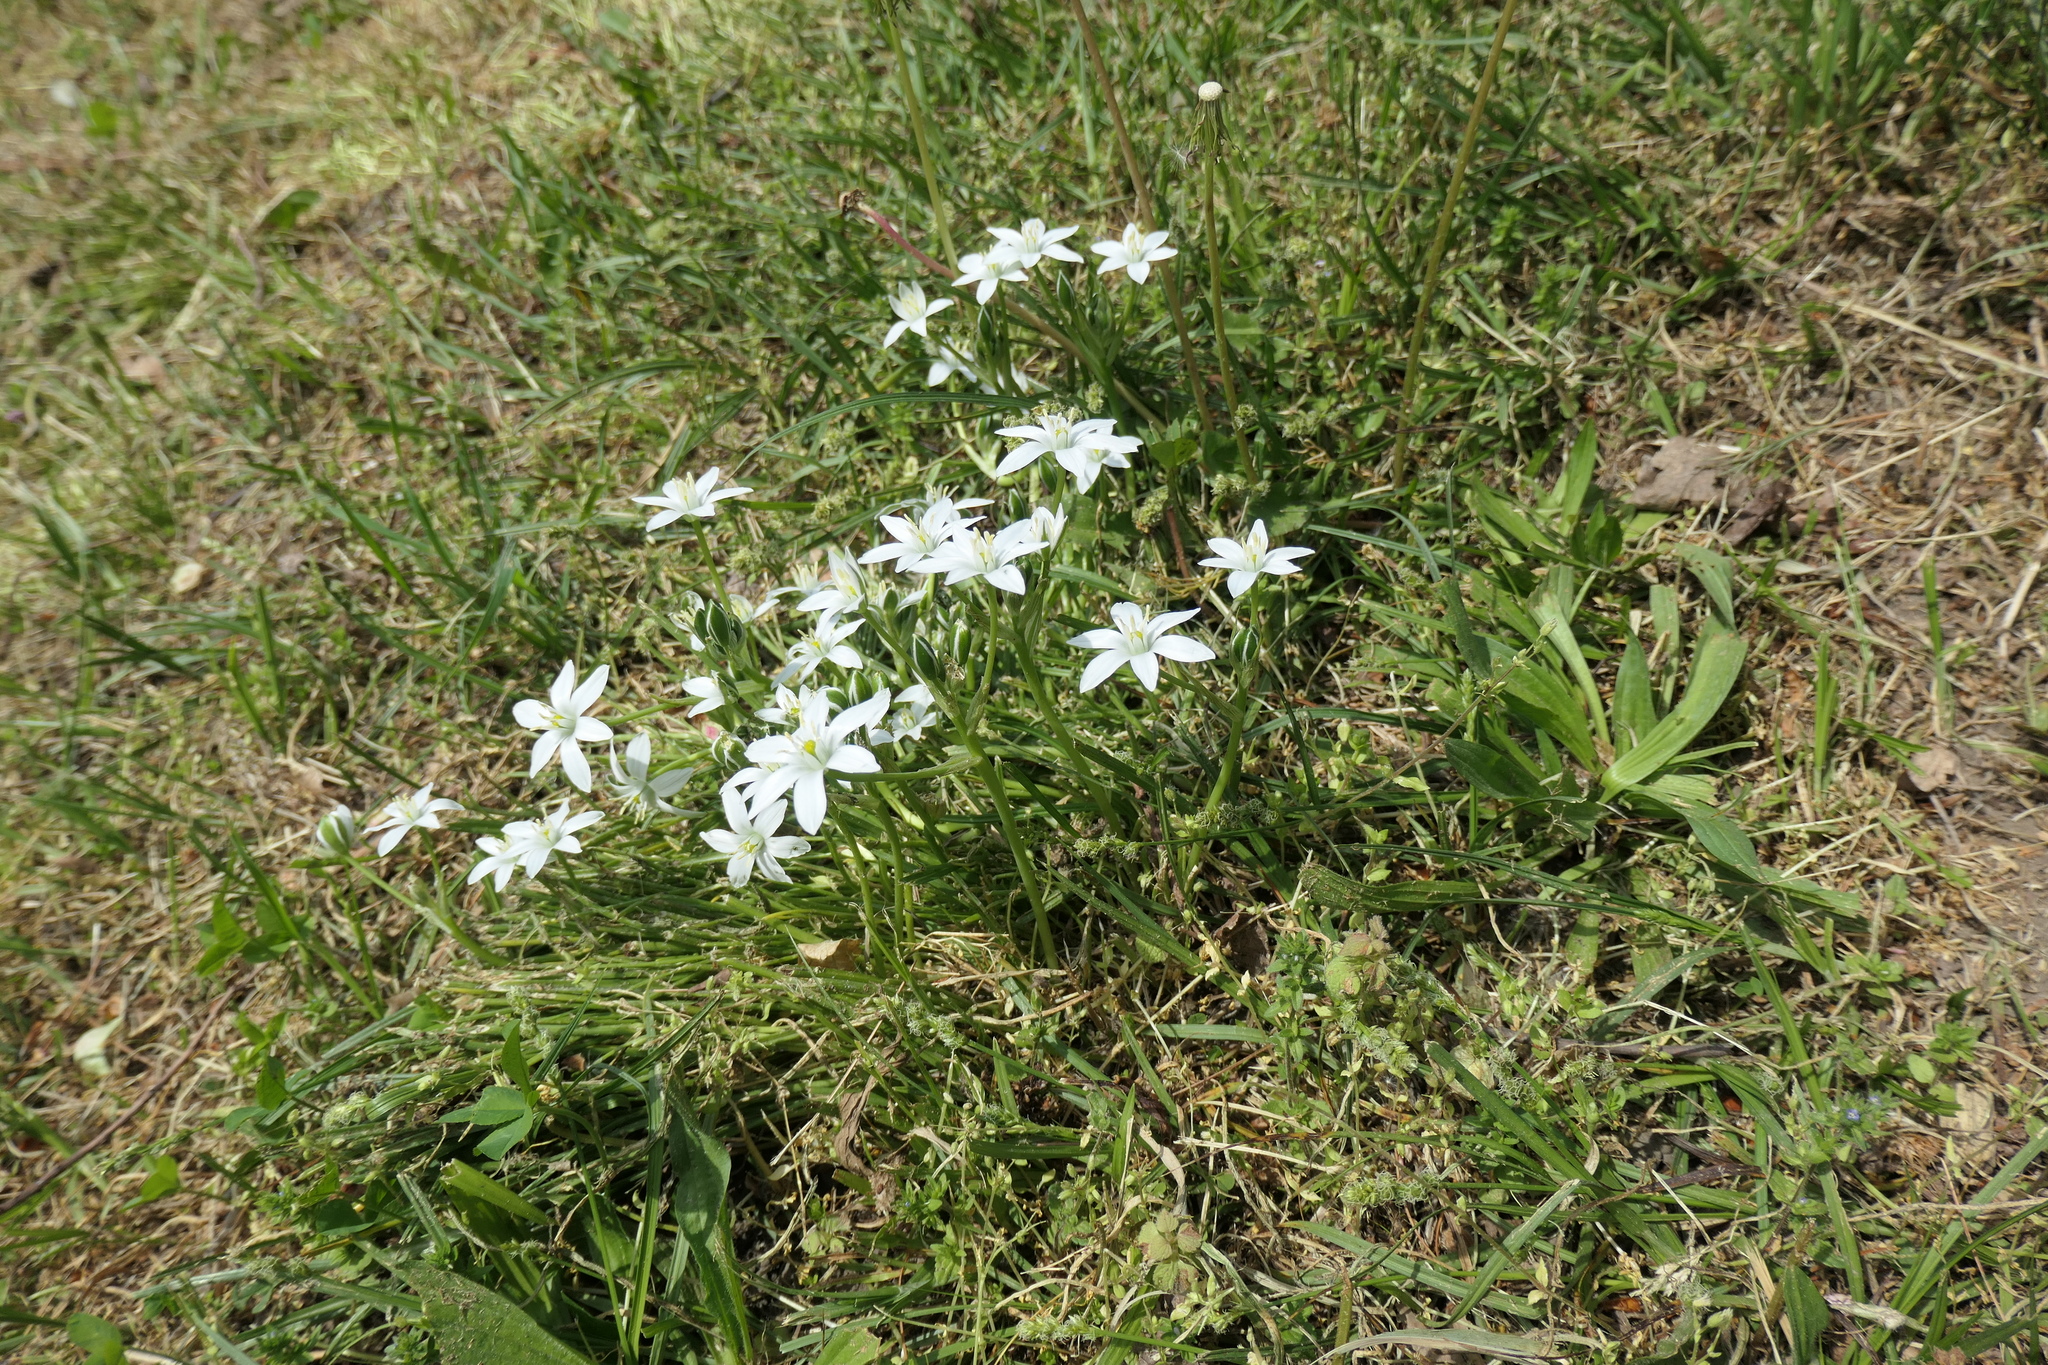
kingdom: Plantae
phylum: Tracheophyta
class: Liliopsida
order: Asparagales
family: Asparagaceae
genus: Ornithogalum
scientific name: Ornithogalum umbellatum
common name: Garden star-of-bethlehem
